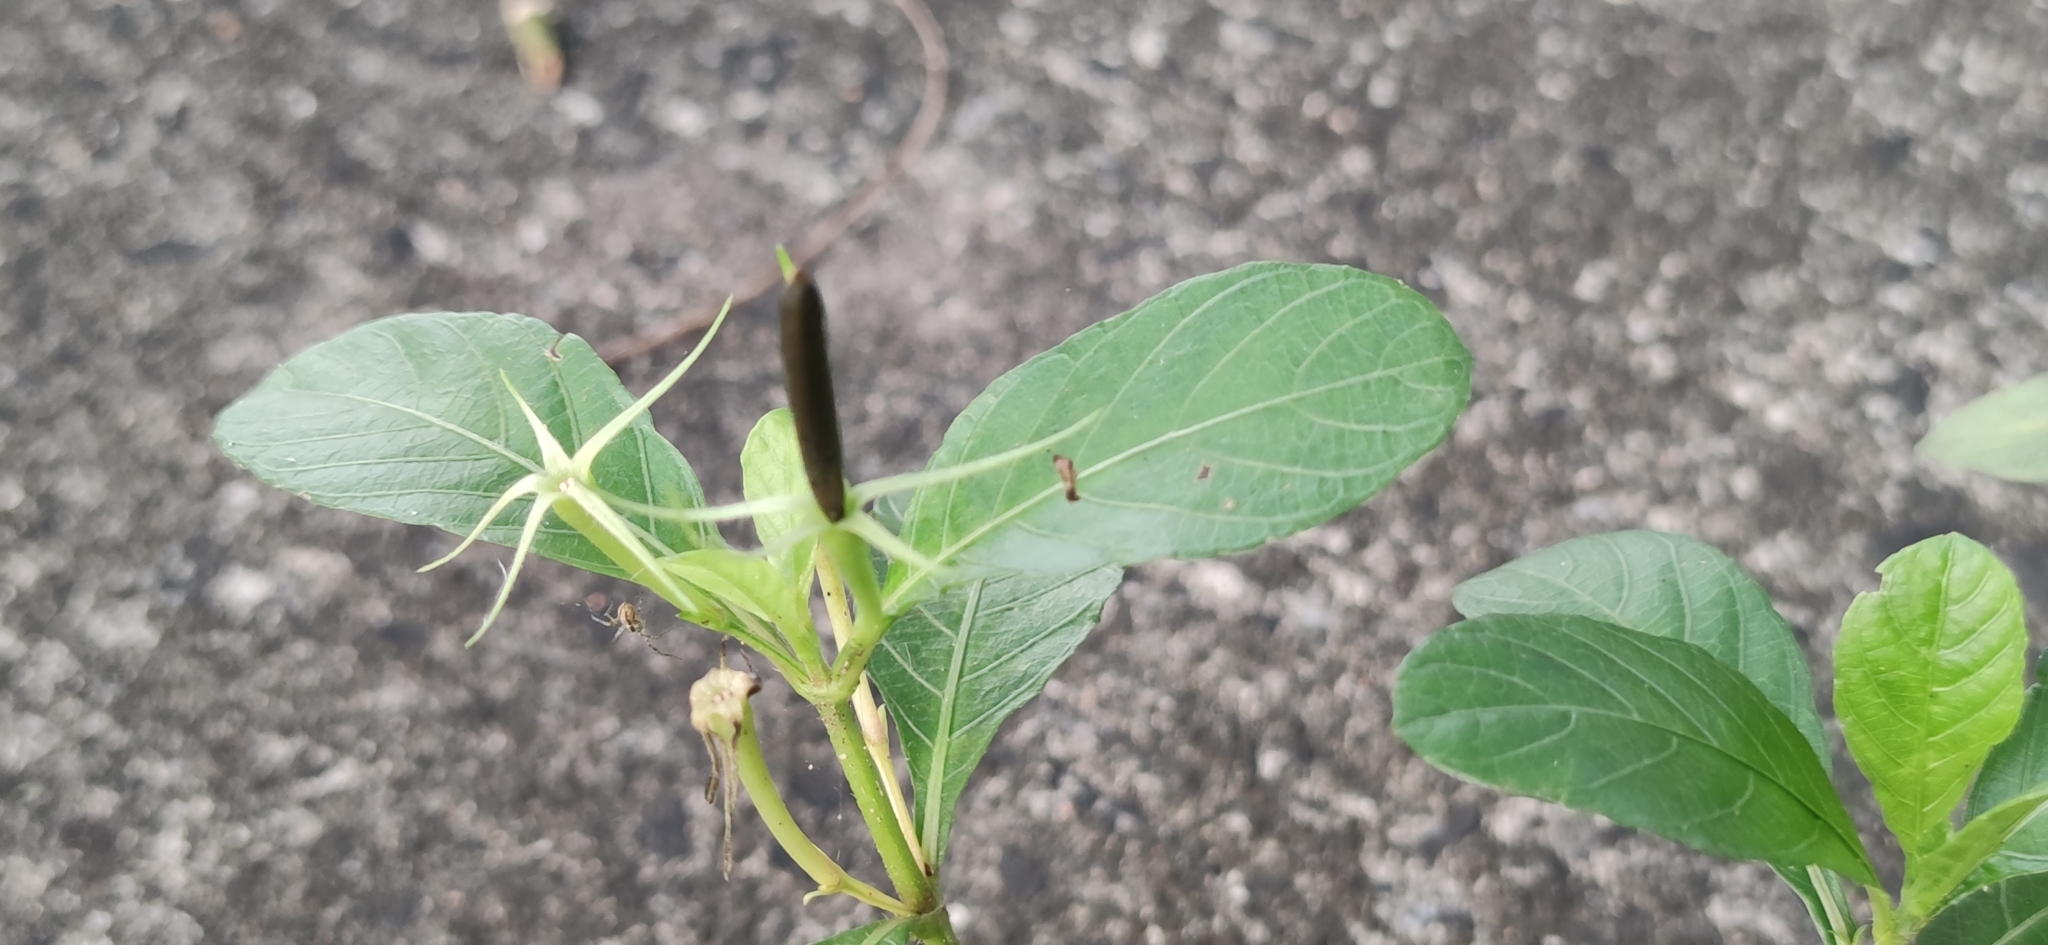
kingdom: Plantae
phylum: Tracheophyta
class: Magnoliopsida
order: Lamiales
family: Acanthaceae
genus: Ruellia
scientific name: Ruellia tuberosa
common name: Devil's bit
